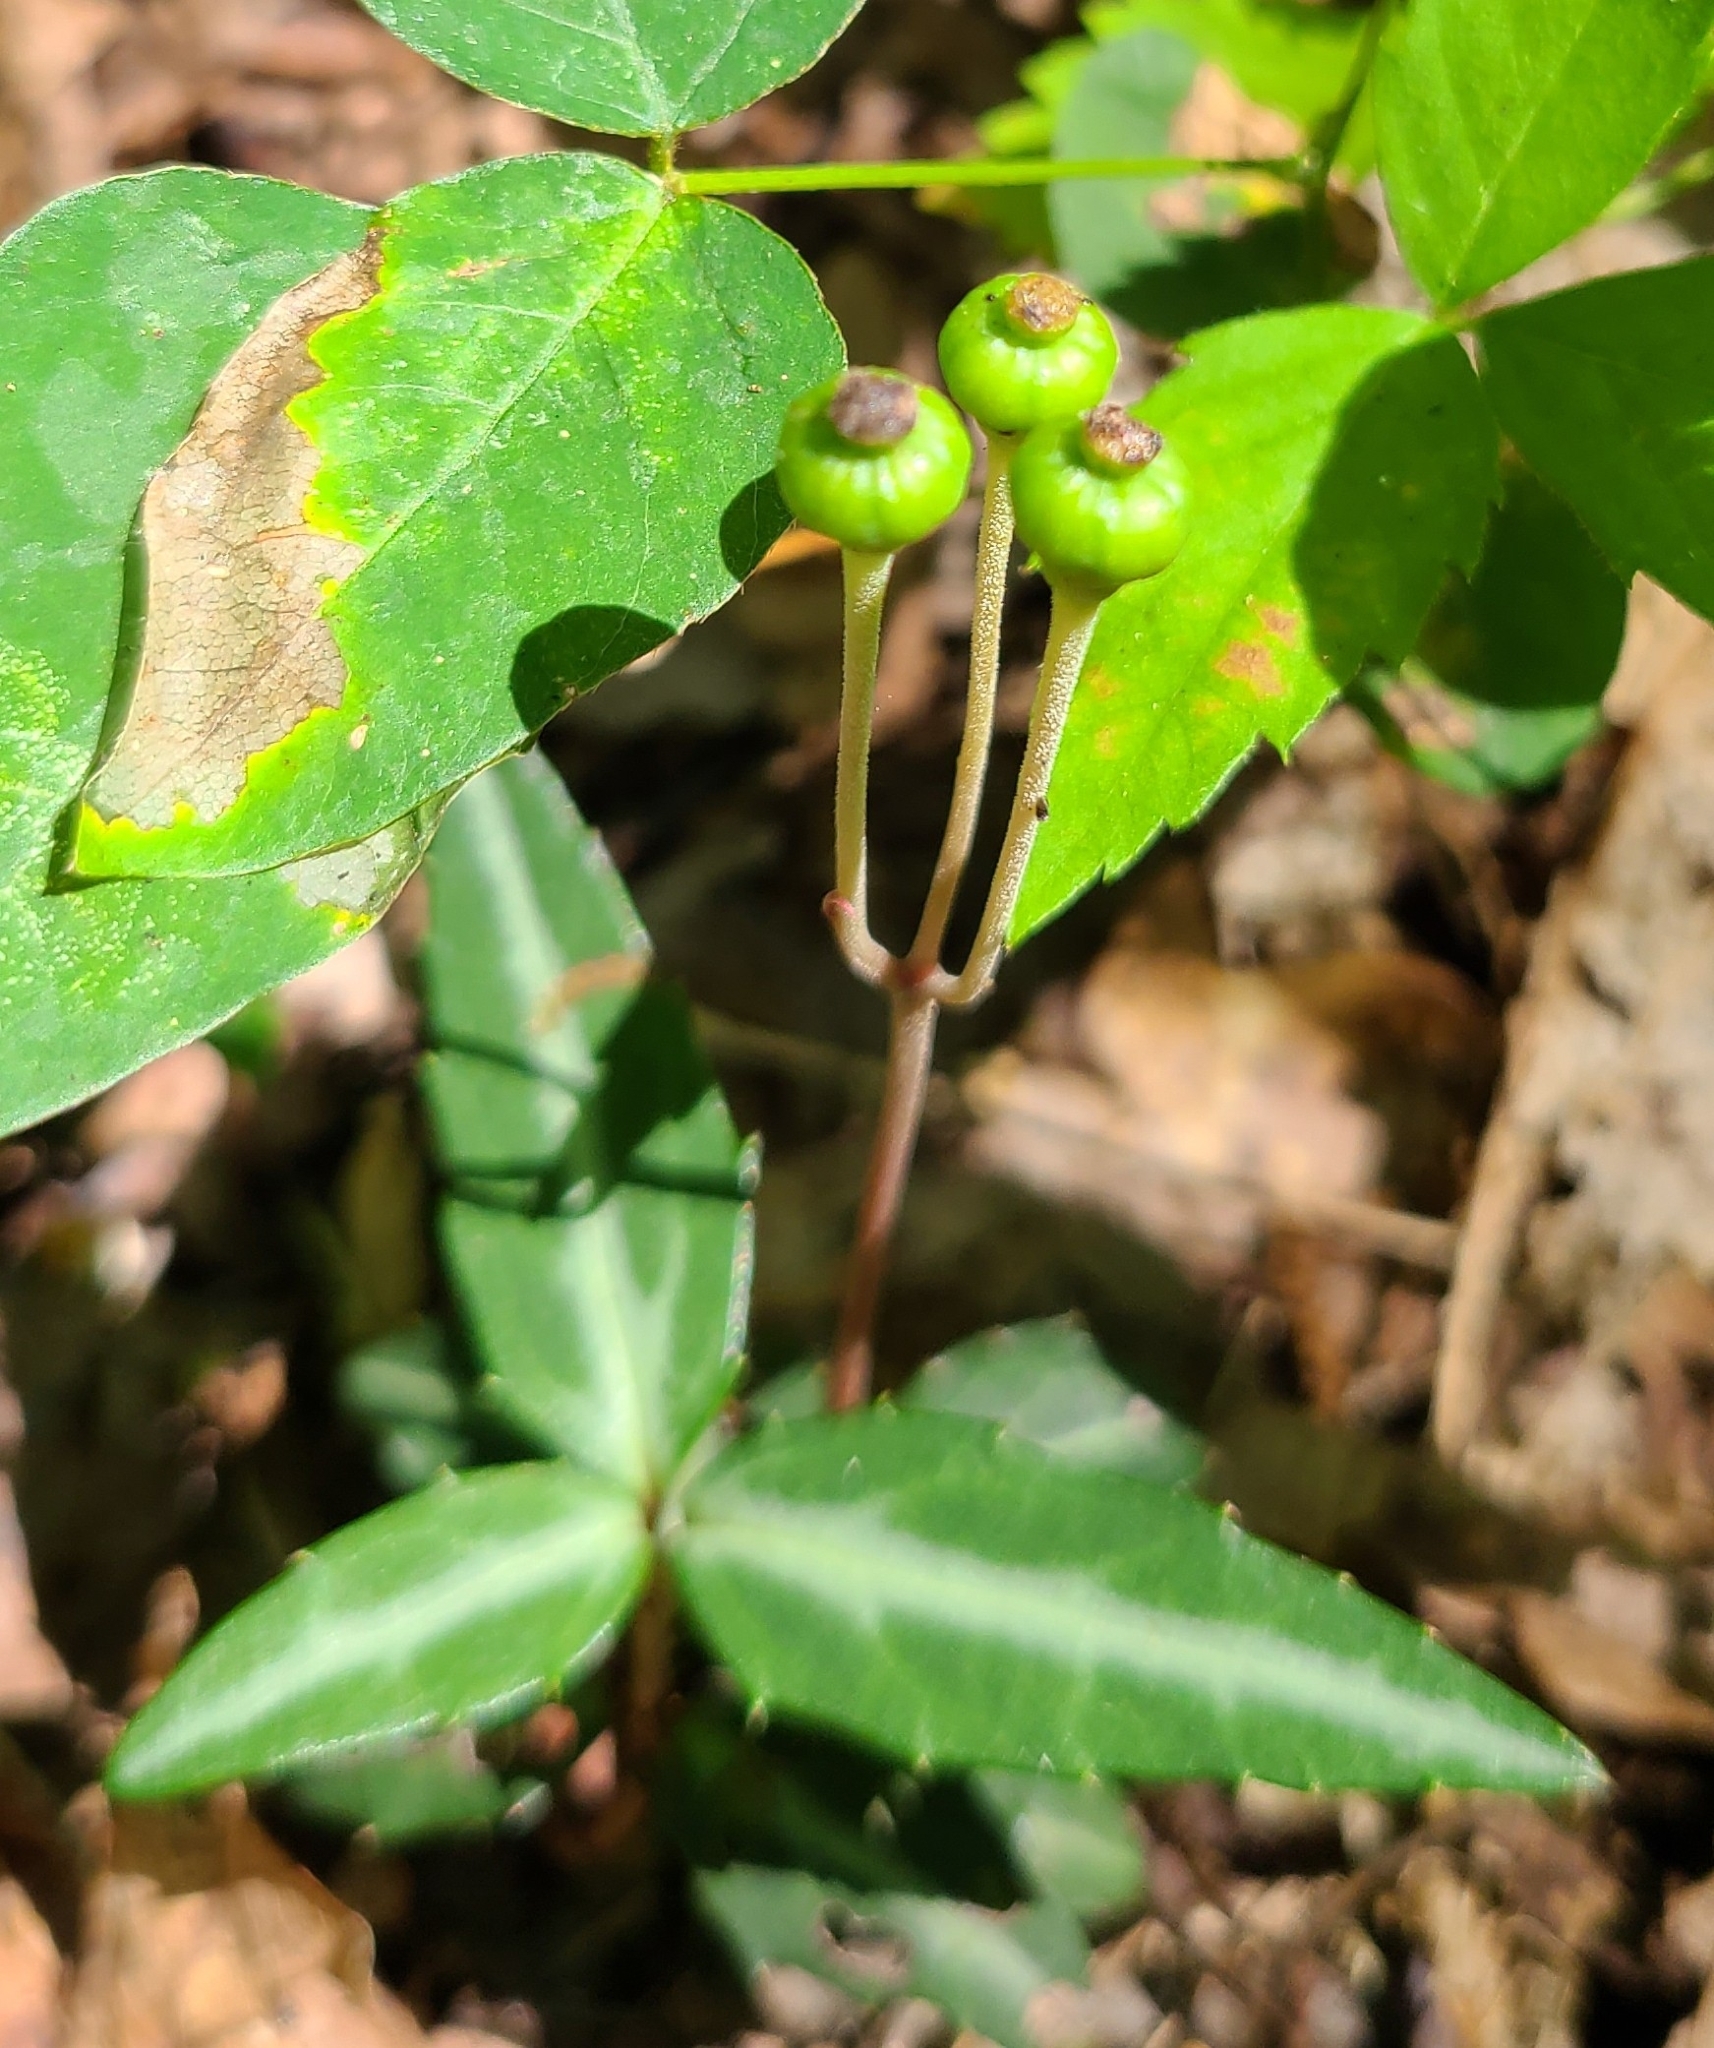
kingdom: Plantae
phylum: Tracheophyta
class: Magnoliopsida
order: Ericales
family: Ericaceae
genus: Chimaphila
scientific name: Chimaphila maculata
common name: Spotted pipsissewa
